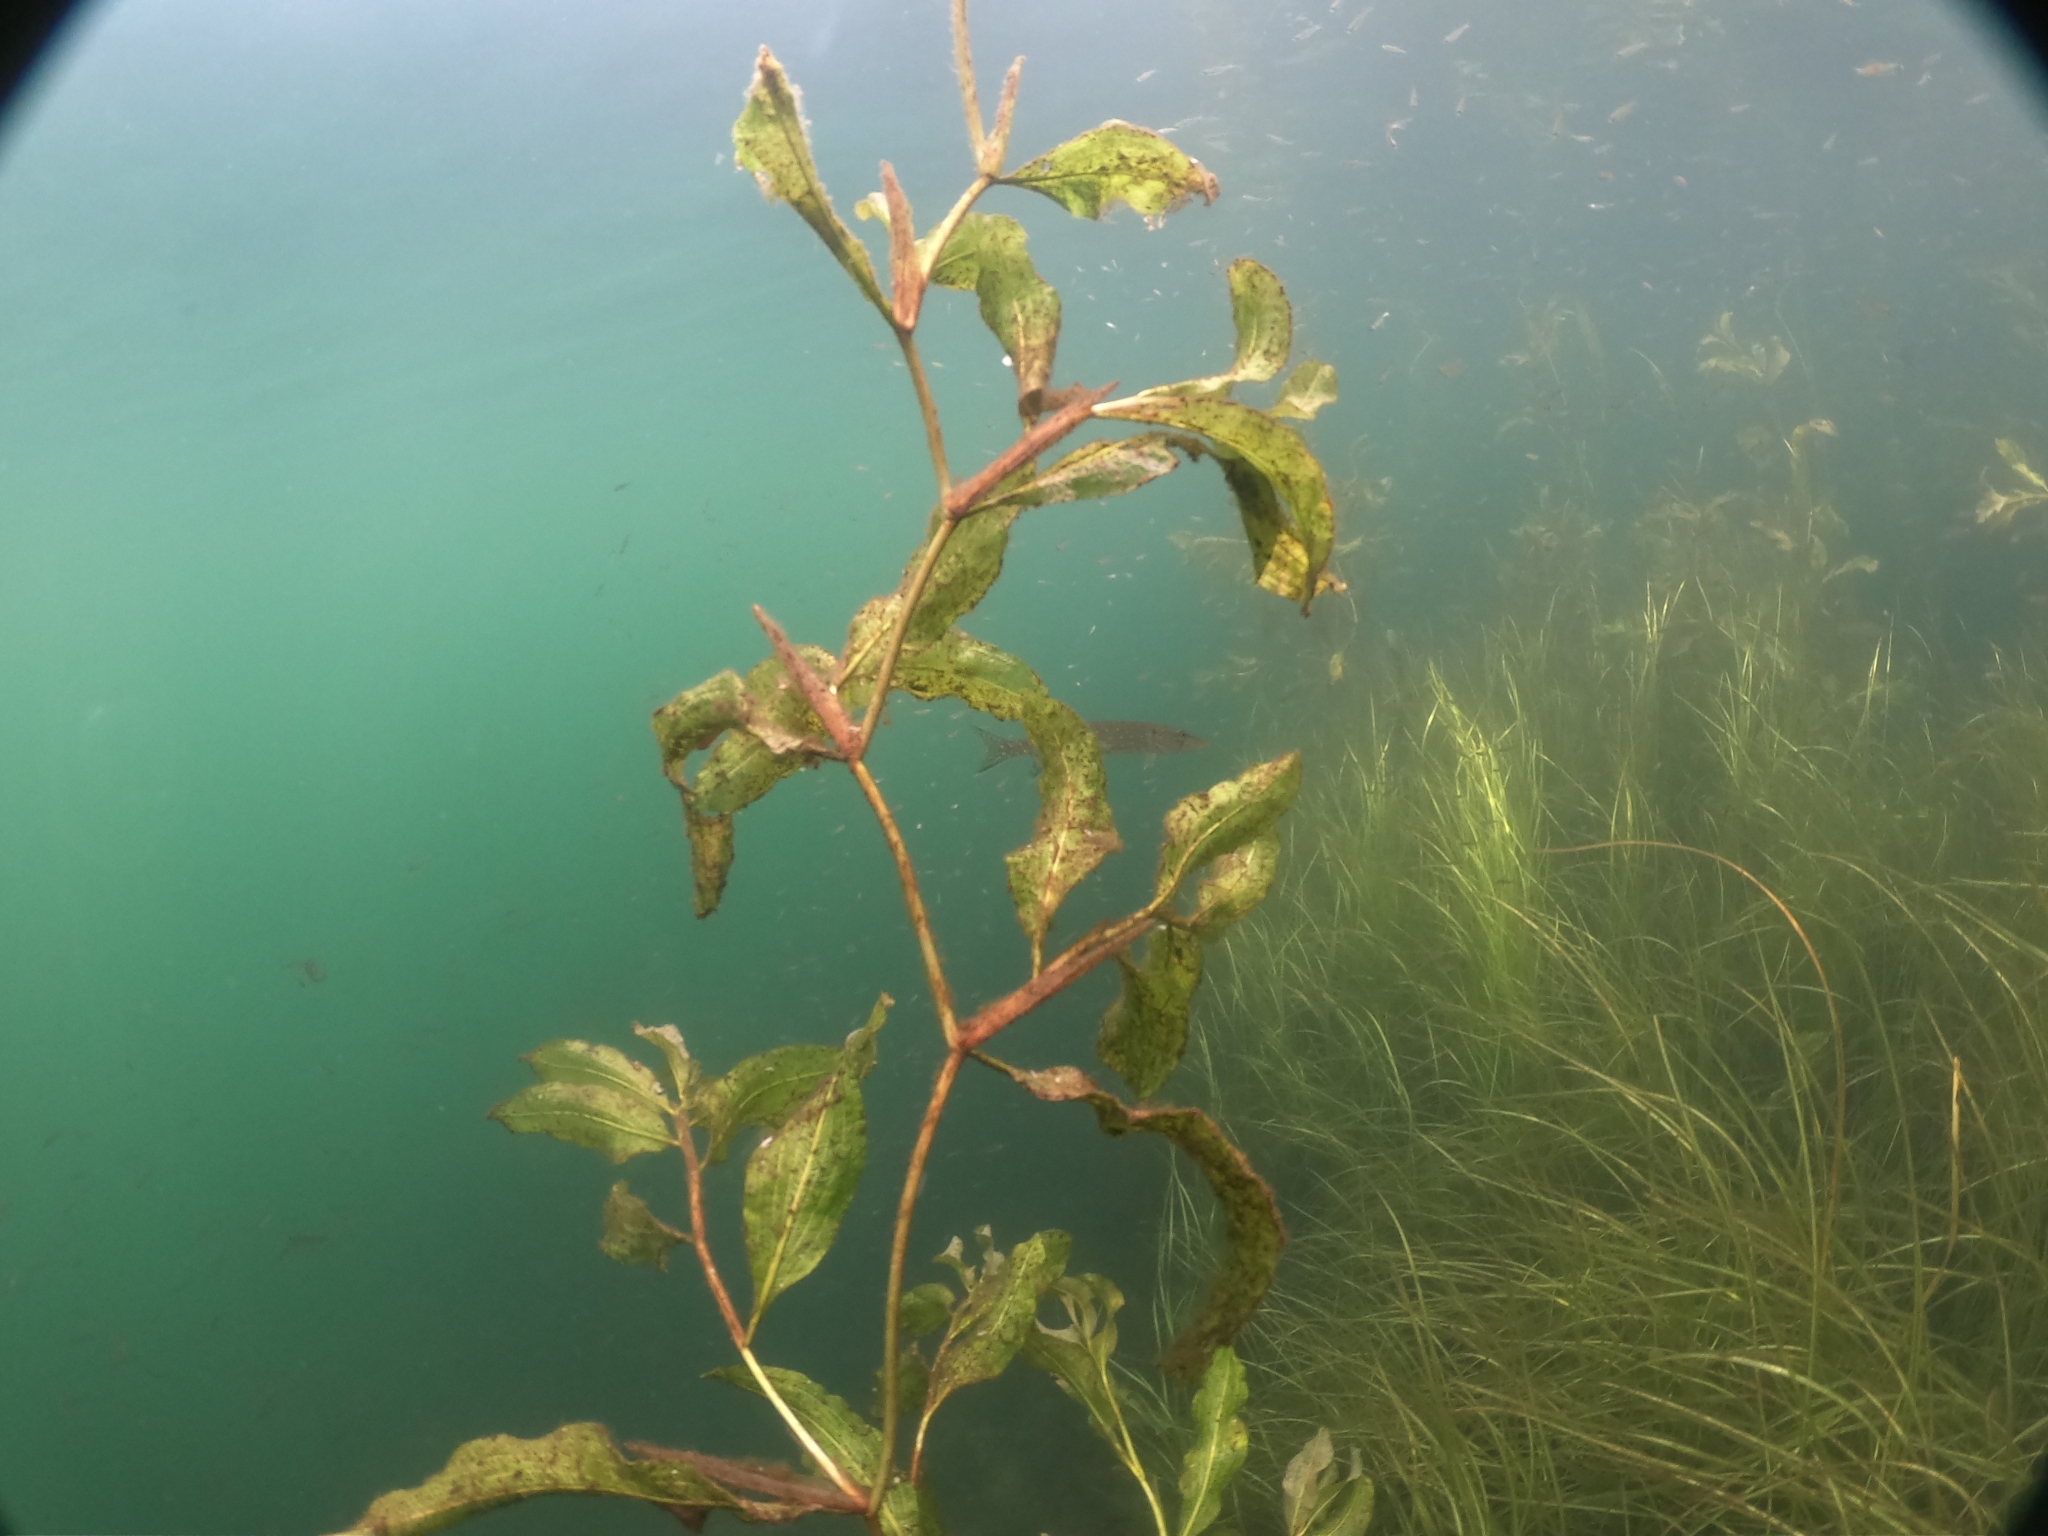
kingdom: Plantae
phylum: Tracheophyta
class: Liliopsida
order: Alismatales
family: Potamogetonaceae
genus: Potamogeton
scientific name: Potamogeton lucens
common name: Shining pondweed
